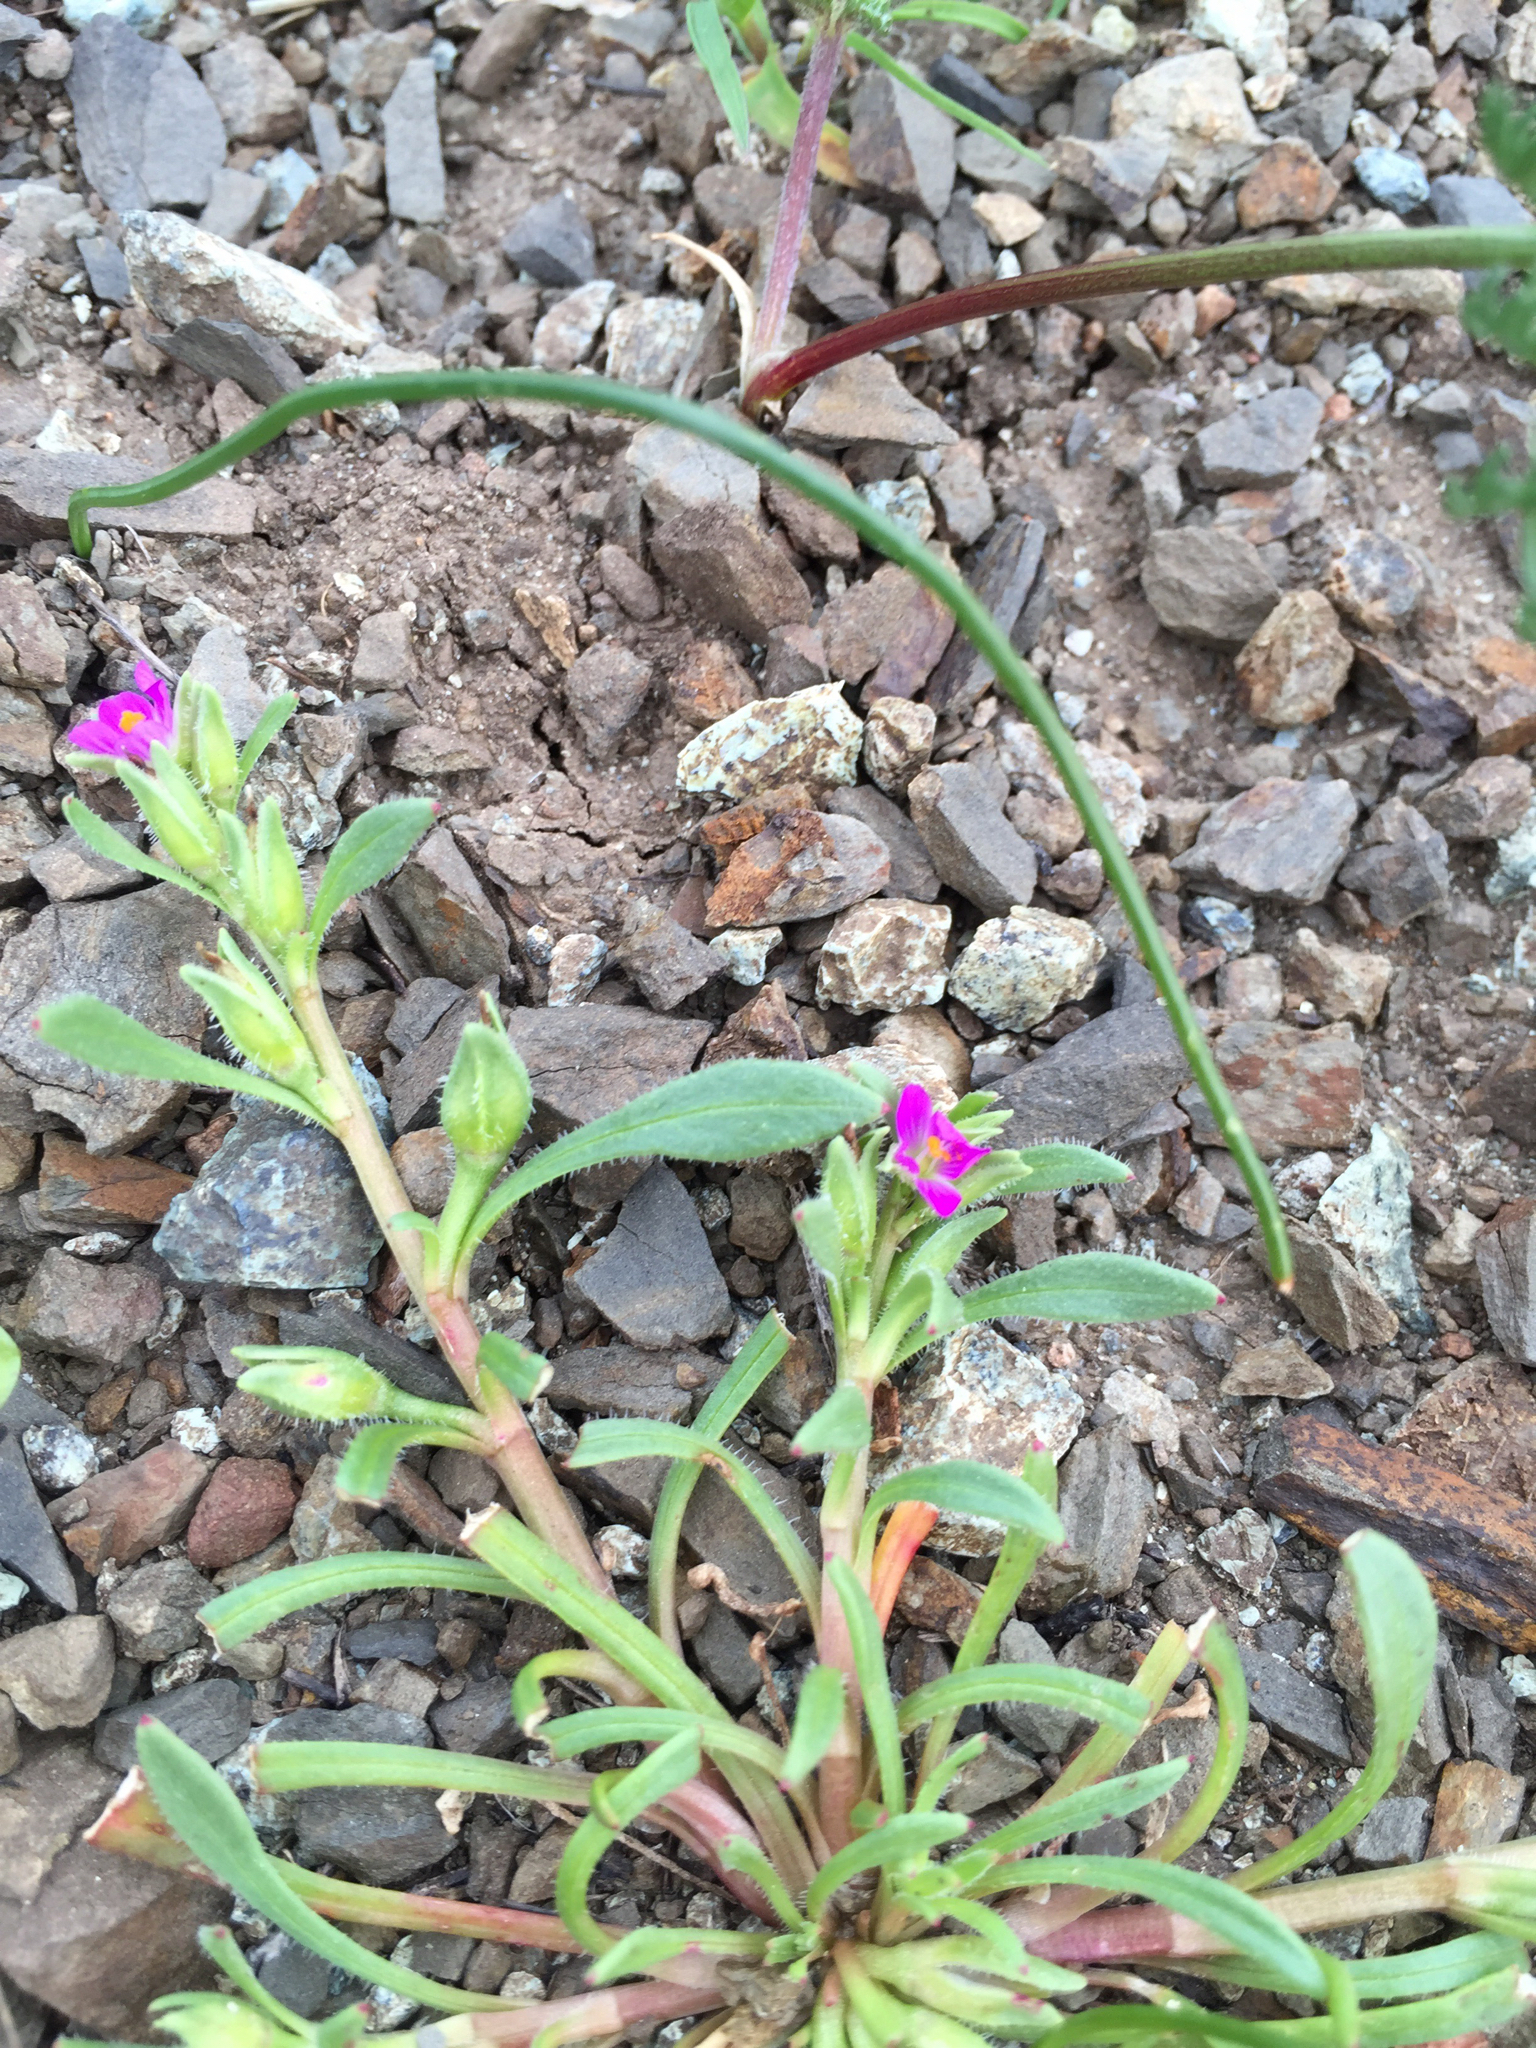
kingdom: Plantae
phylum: Tracheophyta
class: Magnoliopsida
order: Caryophyllales
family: Montiaceae
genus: Calandrinia
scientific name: Calandrinia menziesii
